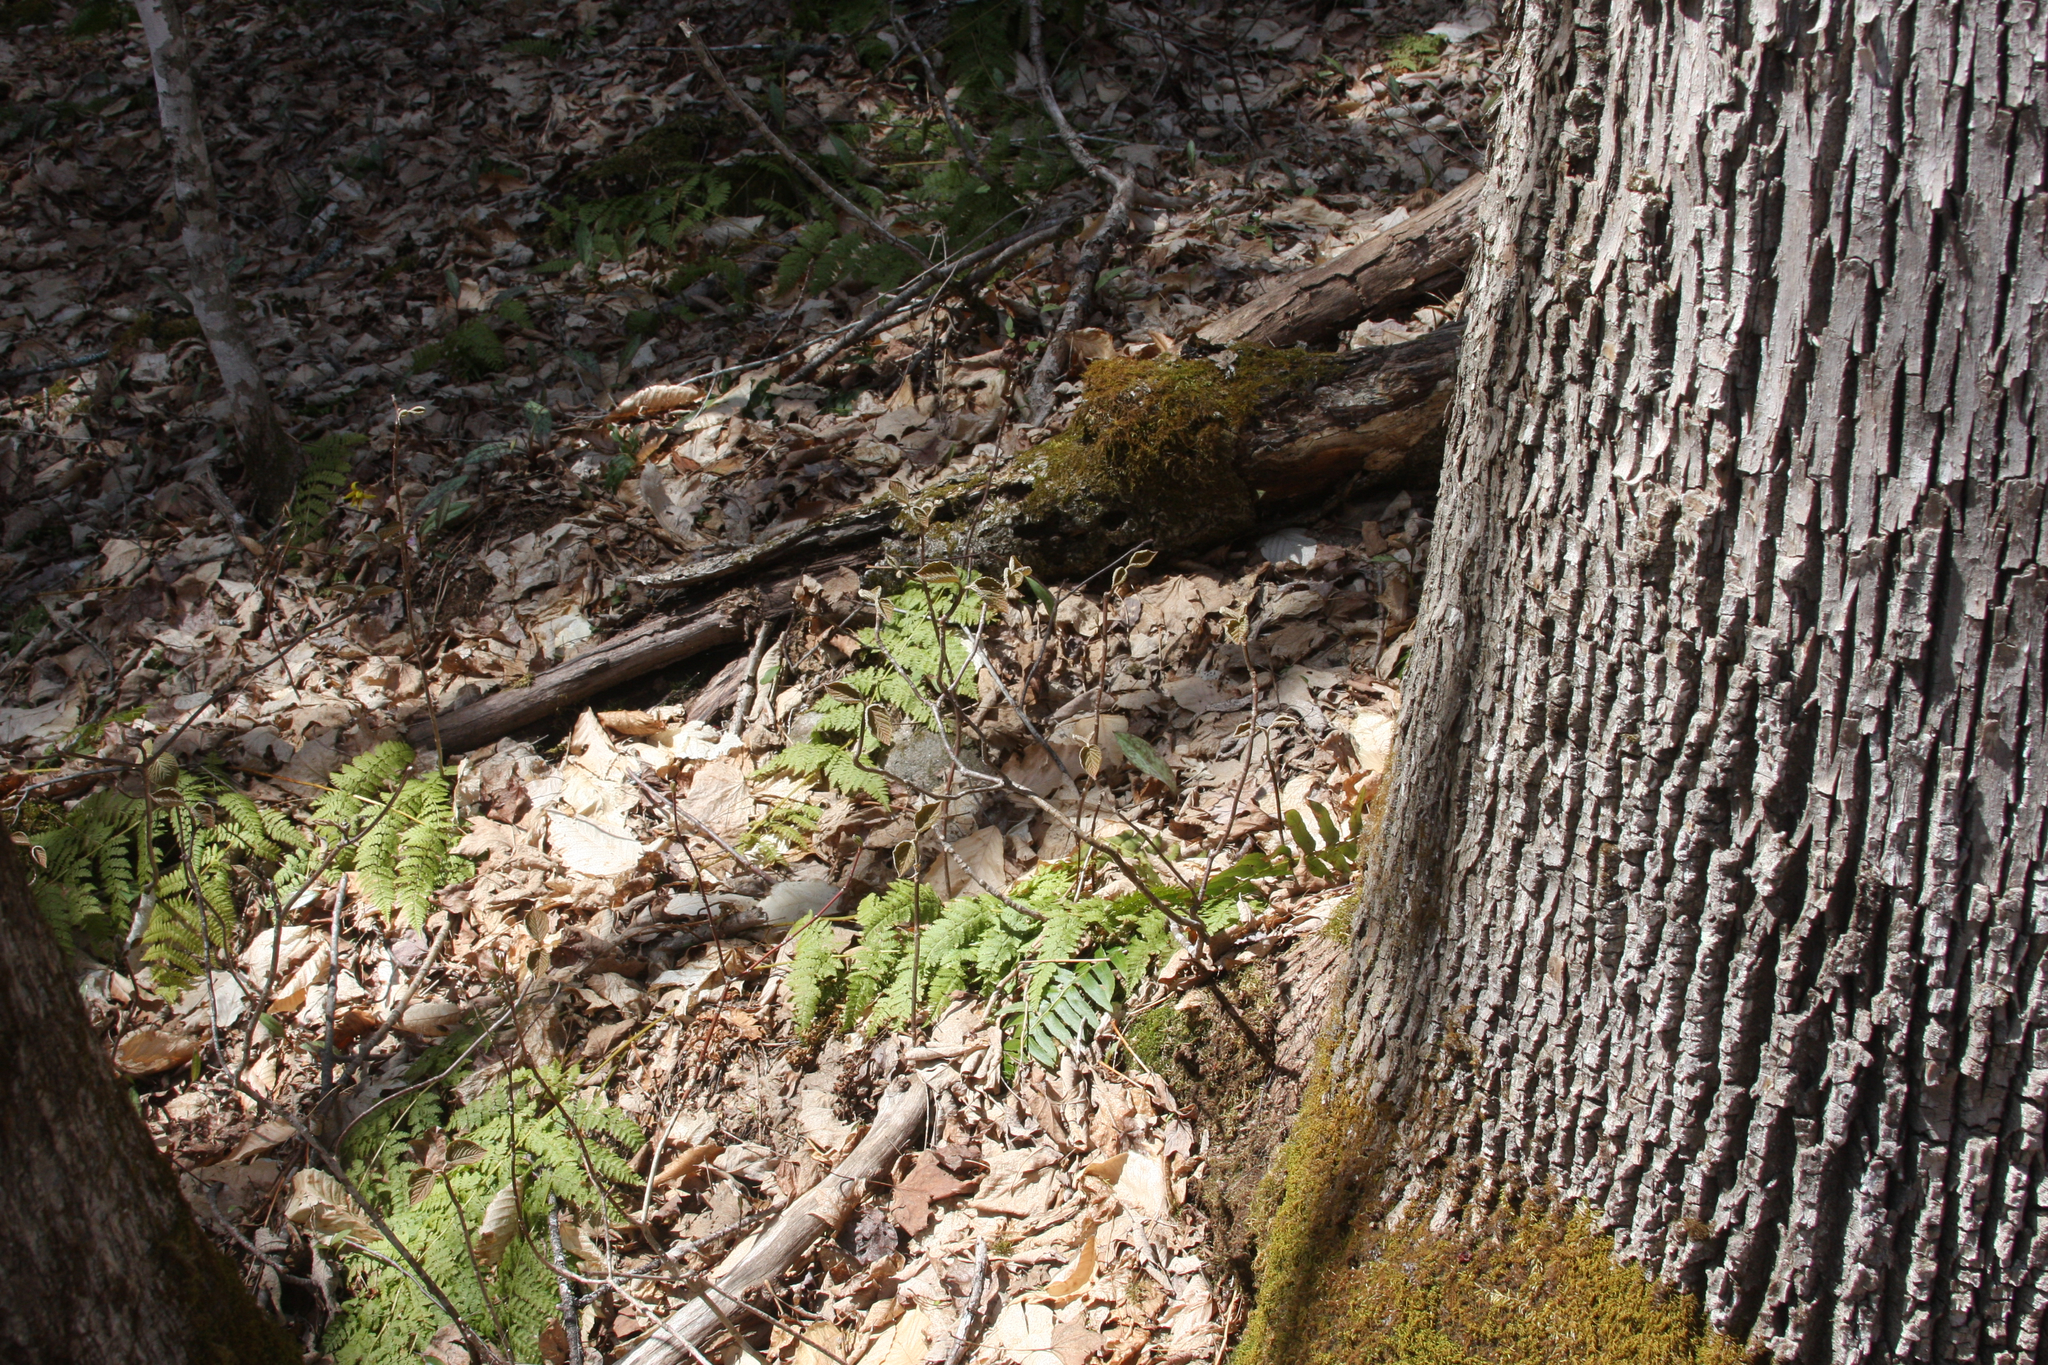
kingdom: Plantae
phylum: Tracheophyta
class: Magnoliopsida
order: Dipsacales
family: Viburnaceae
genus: Viburnum
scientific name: Viburnum lantanoides
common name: Hobblebush
